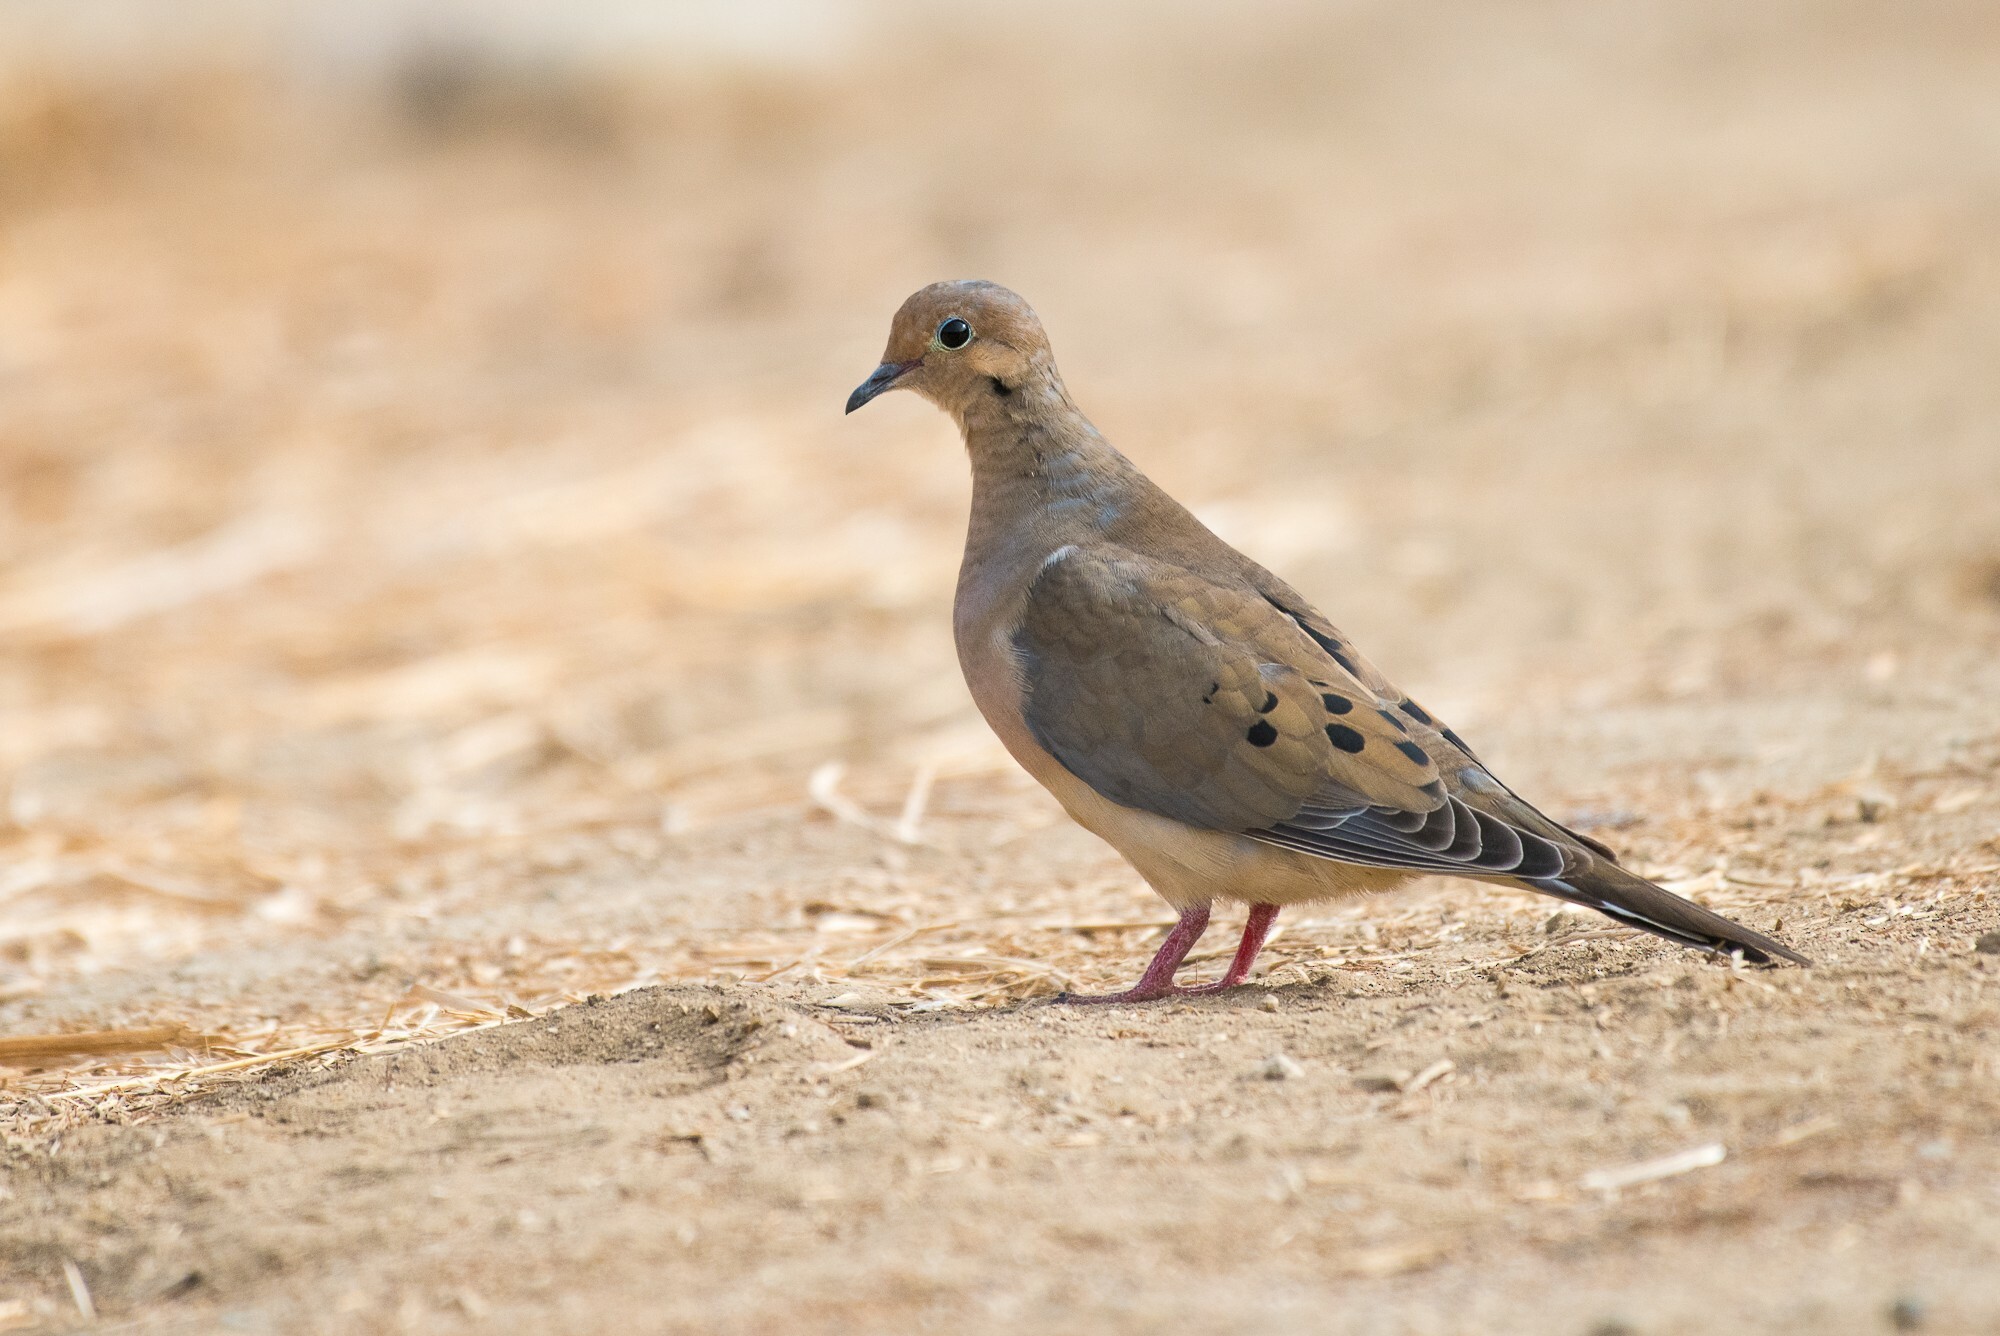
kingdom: Animalia
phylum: Chordata
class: Aves
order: Columbiformes
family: Columbidae
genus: Zenaida
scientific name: Zenaida macroura
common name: Mourning dove
